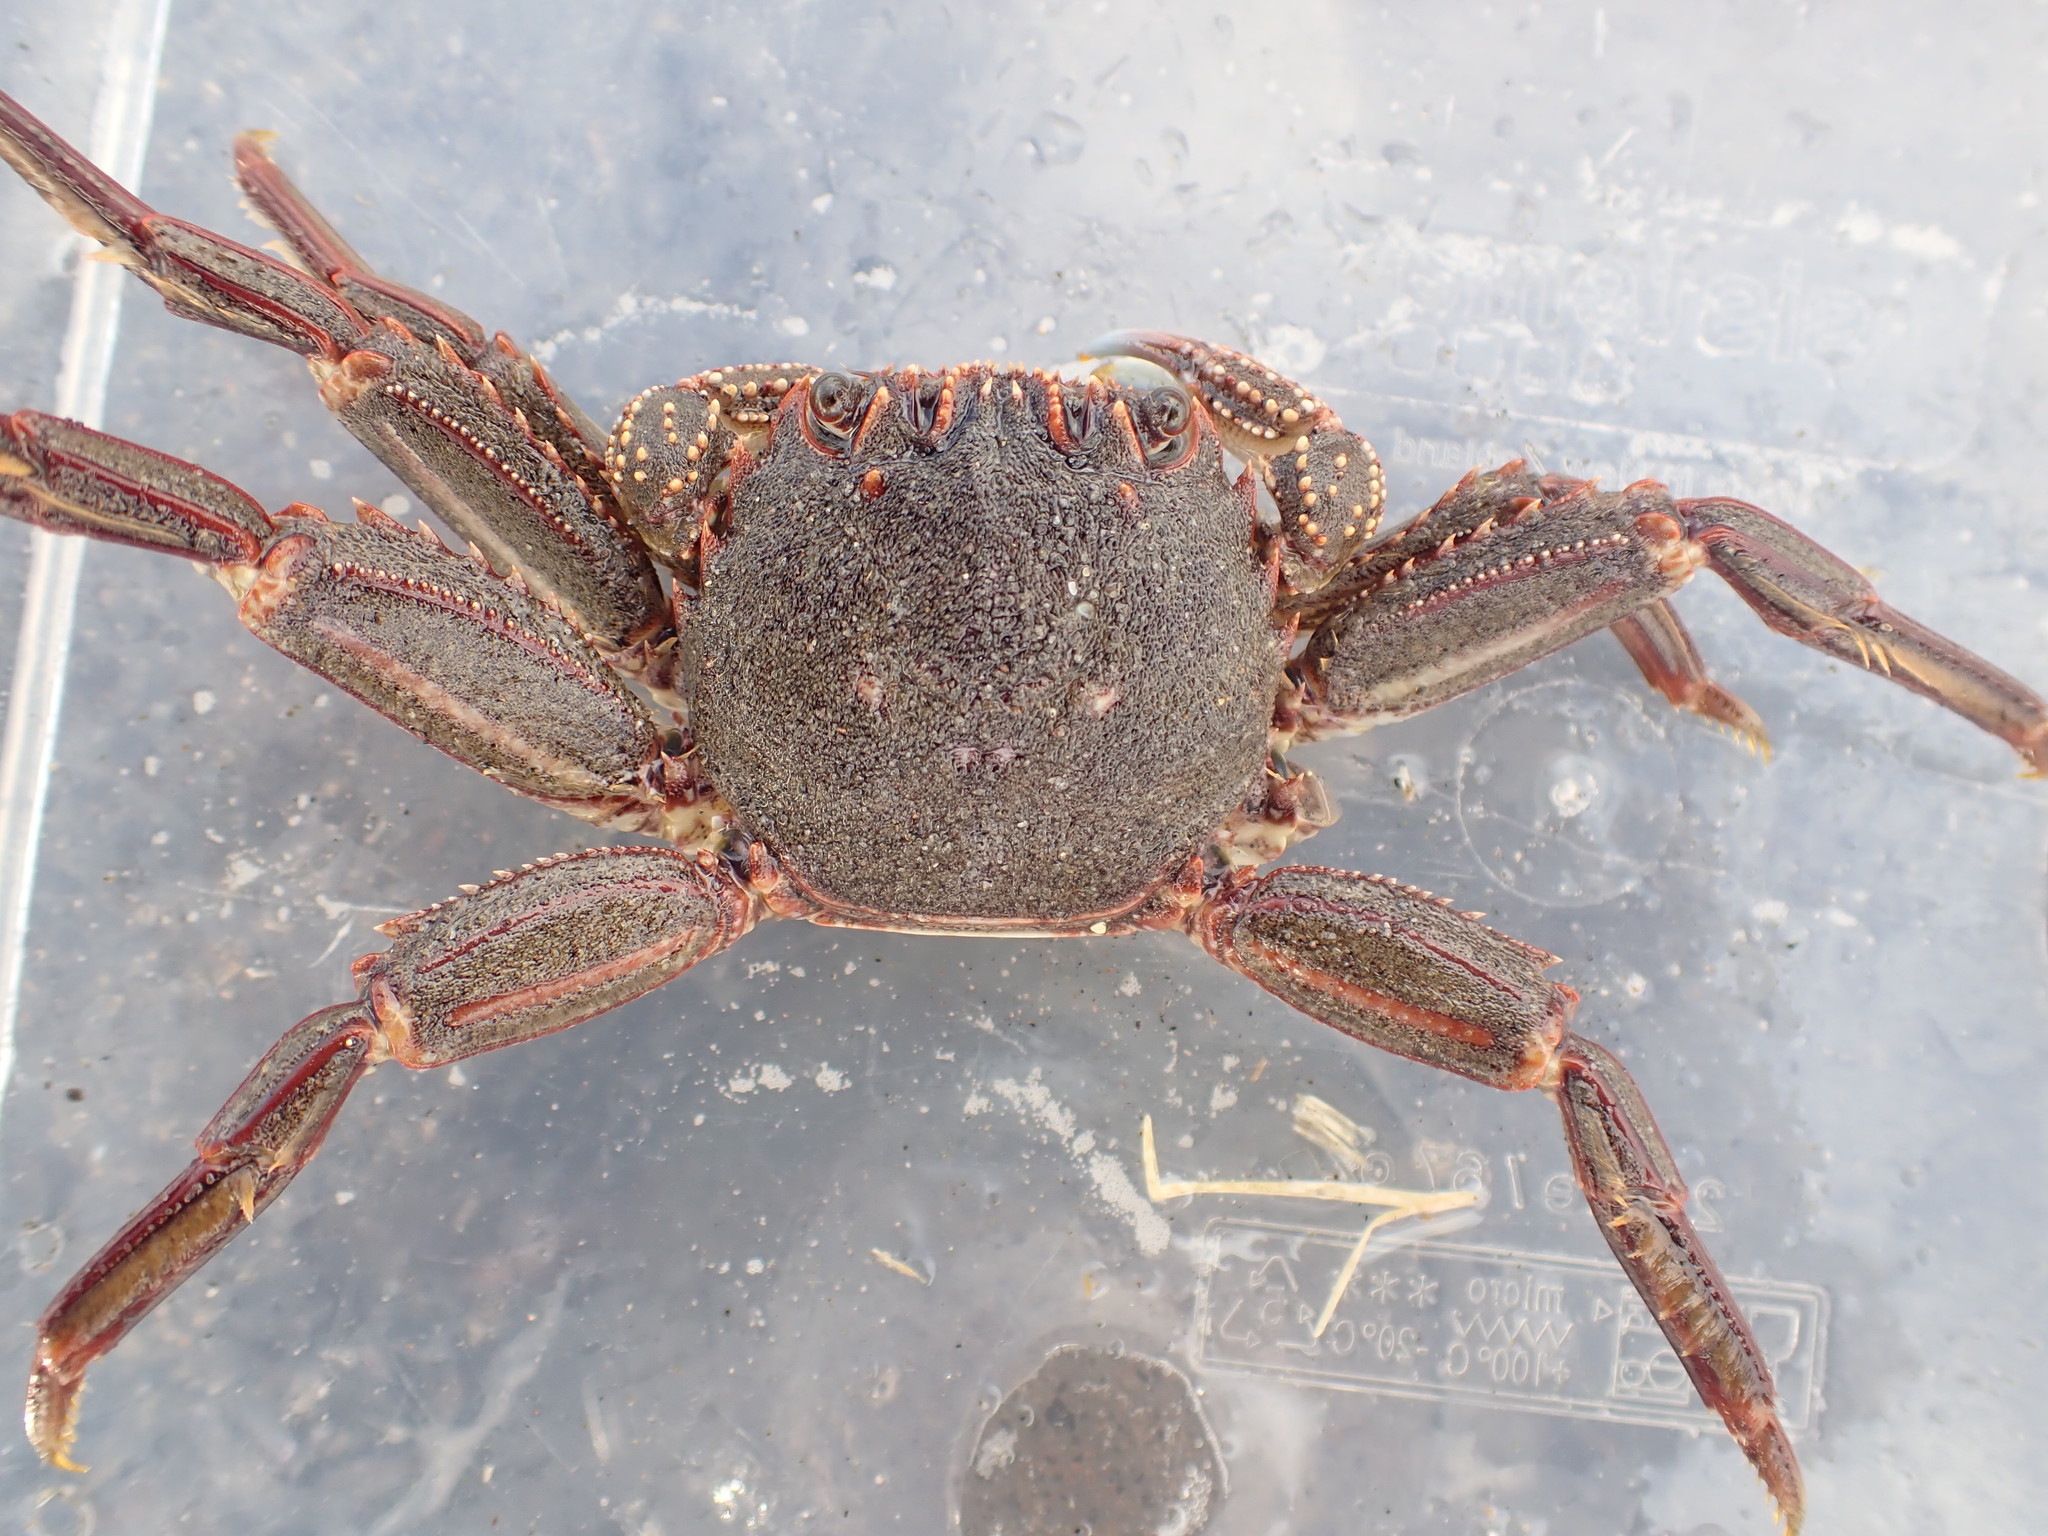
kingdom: Animalia
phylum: Arthropoda
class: Malacostraca
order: Decapoda
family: Plagusiidae
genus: Guinusia
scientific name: Guinusia chabrus
